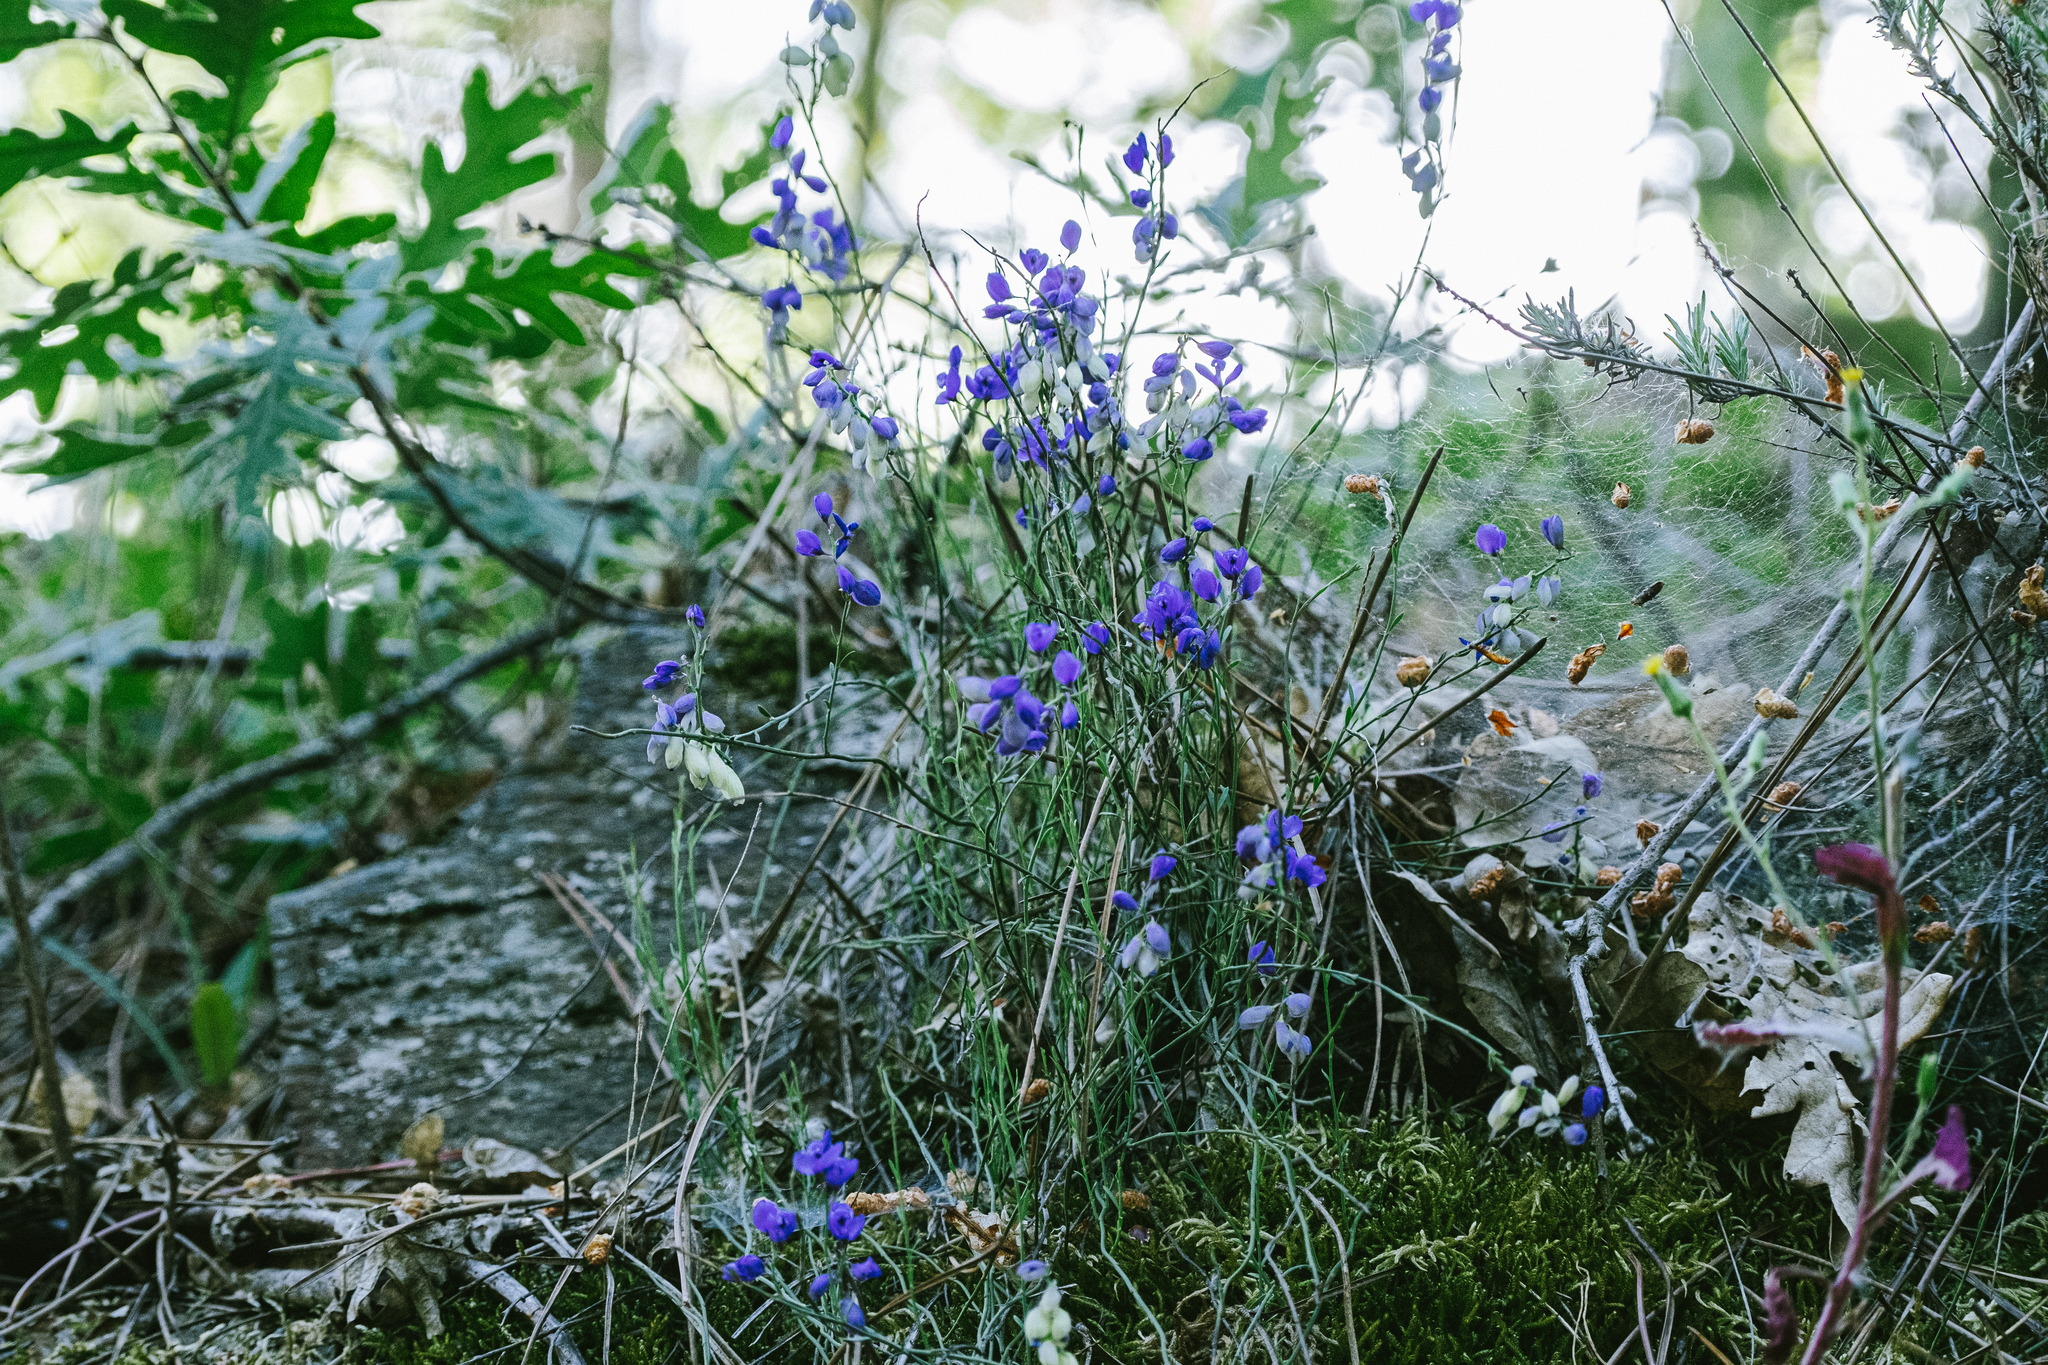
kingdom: Plantae
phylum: Tracheophyta
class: Magnoliopsida
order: Fabales
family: Polygalaceae
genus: Polygala
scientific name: Polygala microphylla
